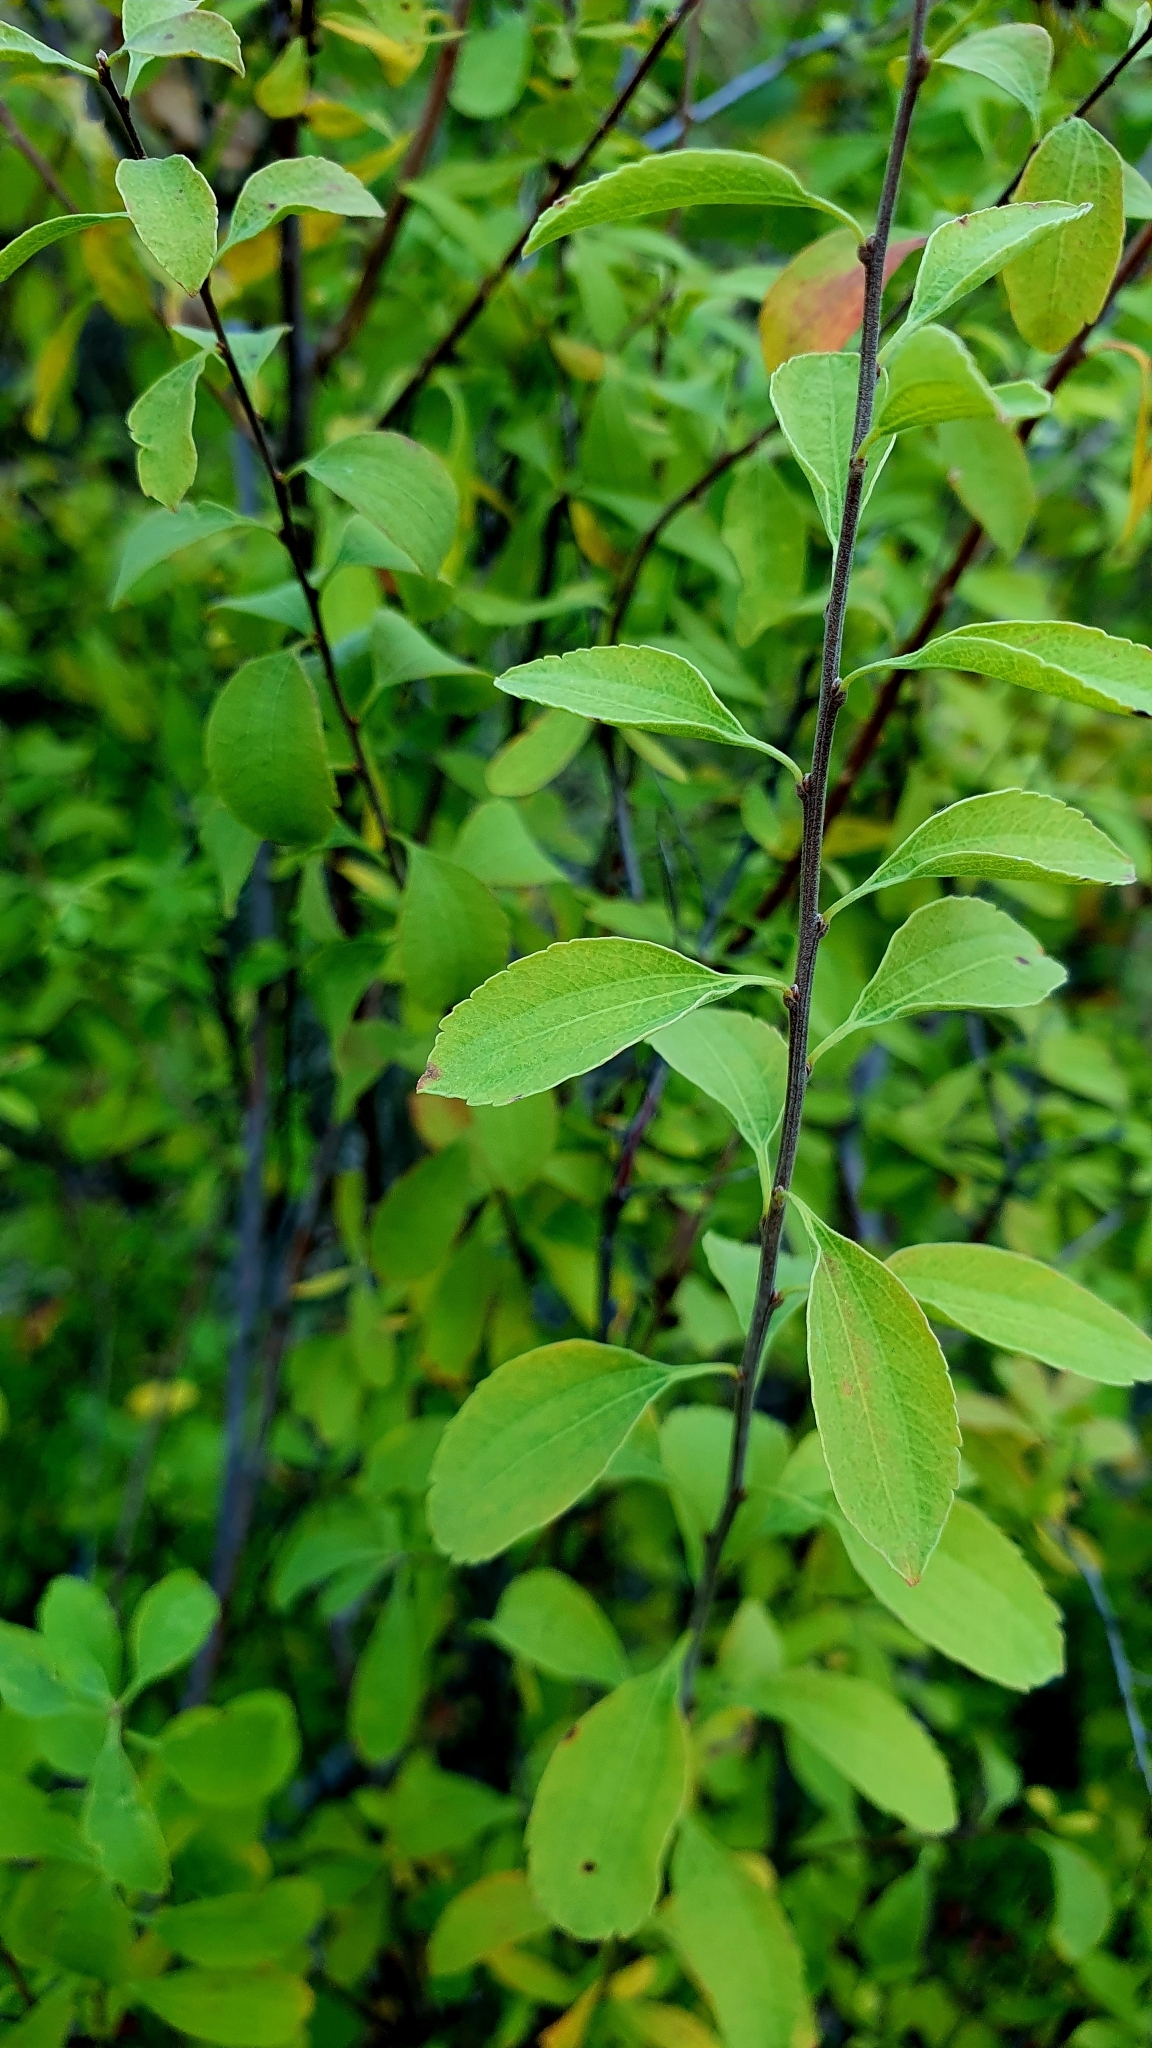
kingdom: Plantae
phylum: Tracheophyta
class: Magnoliopsida
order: Rosales
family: Rosaceae
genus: Spiraea
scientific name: Spiraea crenata
